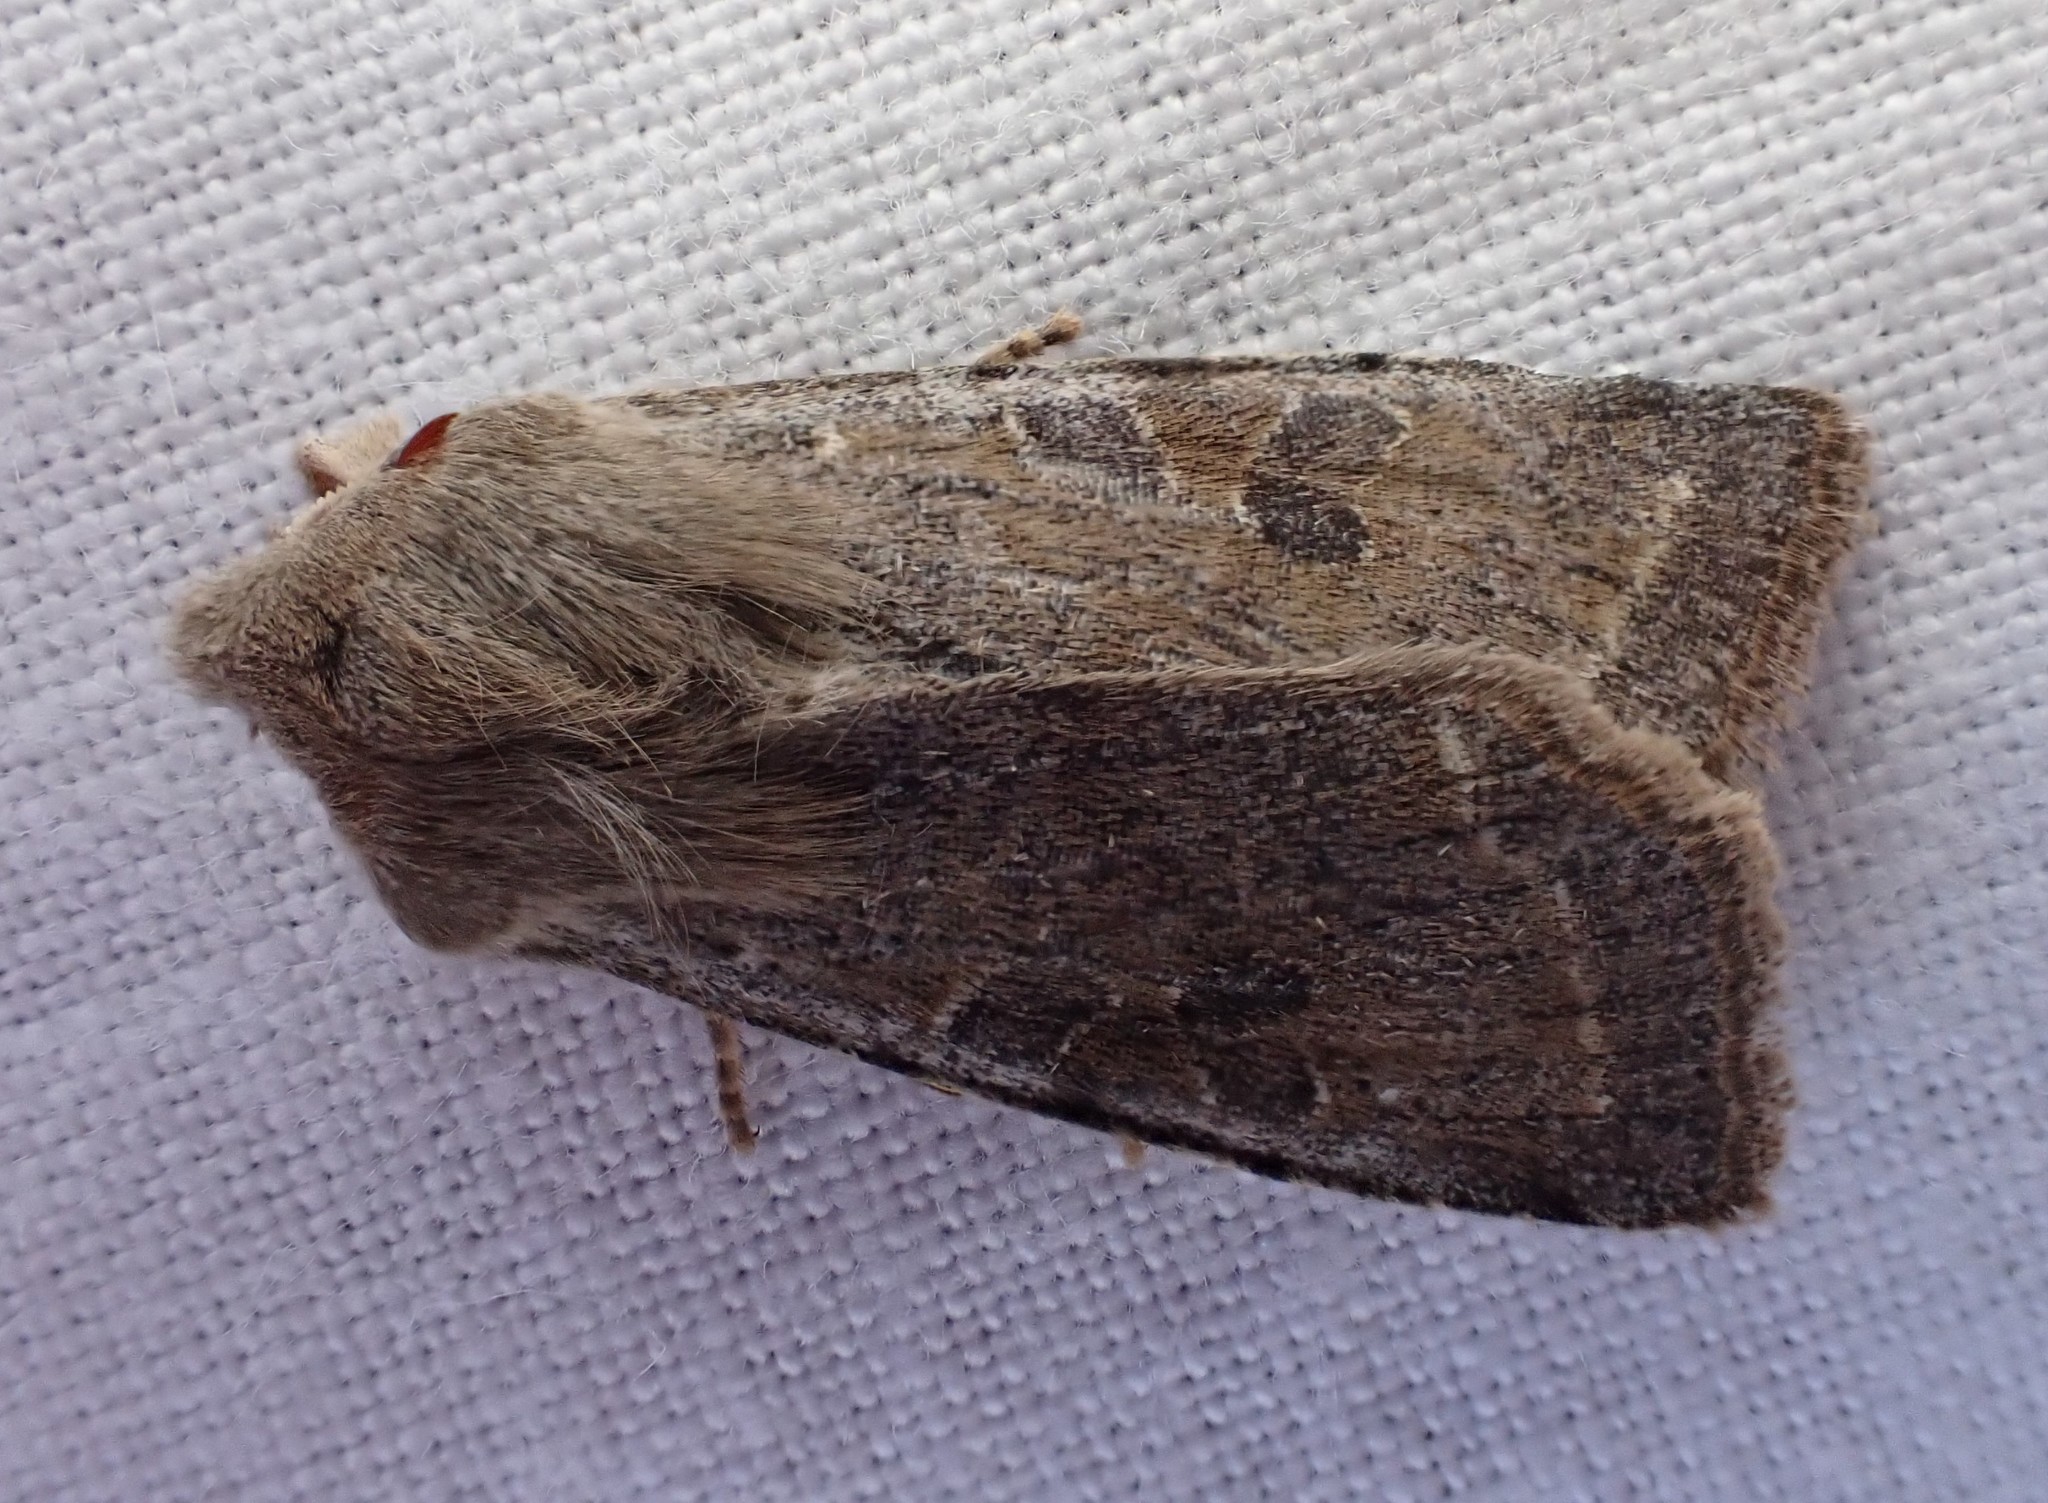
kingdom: Animalia
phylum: Arthropoda
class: Insecta
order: Lepidoptera
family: Noctuidae
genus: Orthosia
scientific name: Orthosia incerta
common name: Clouded drab
